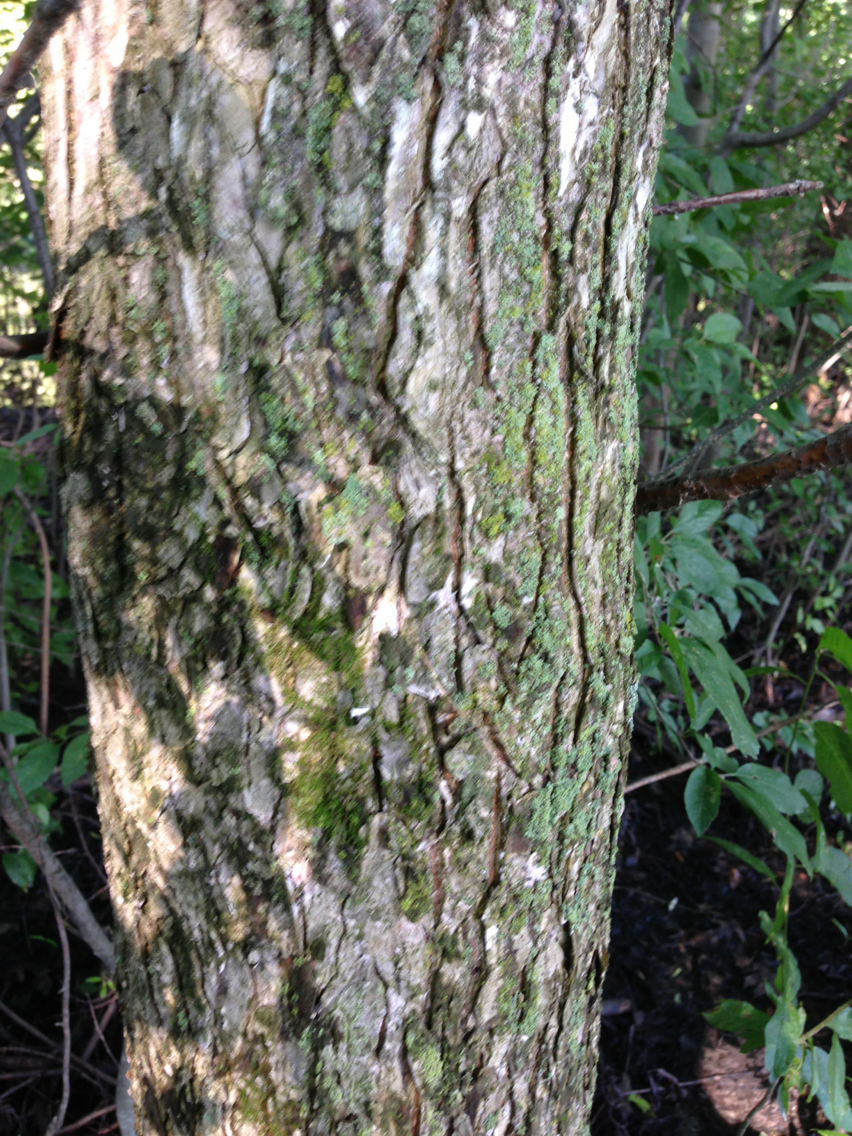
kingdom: Plantae
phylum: Tracheophyta
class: Magnoliopsida
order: Rosales
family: Ulmaceae
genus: Ulmus
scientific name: Ulmus americana
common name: American elm
